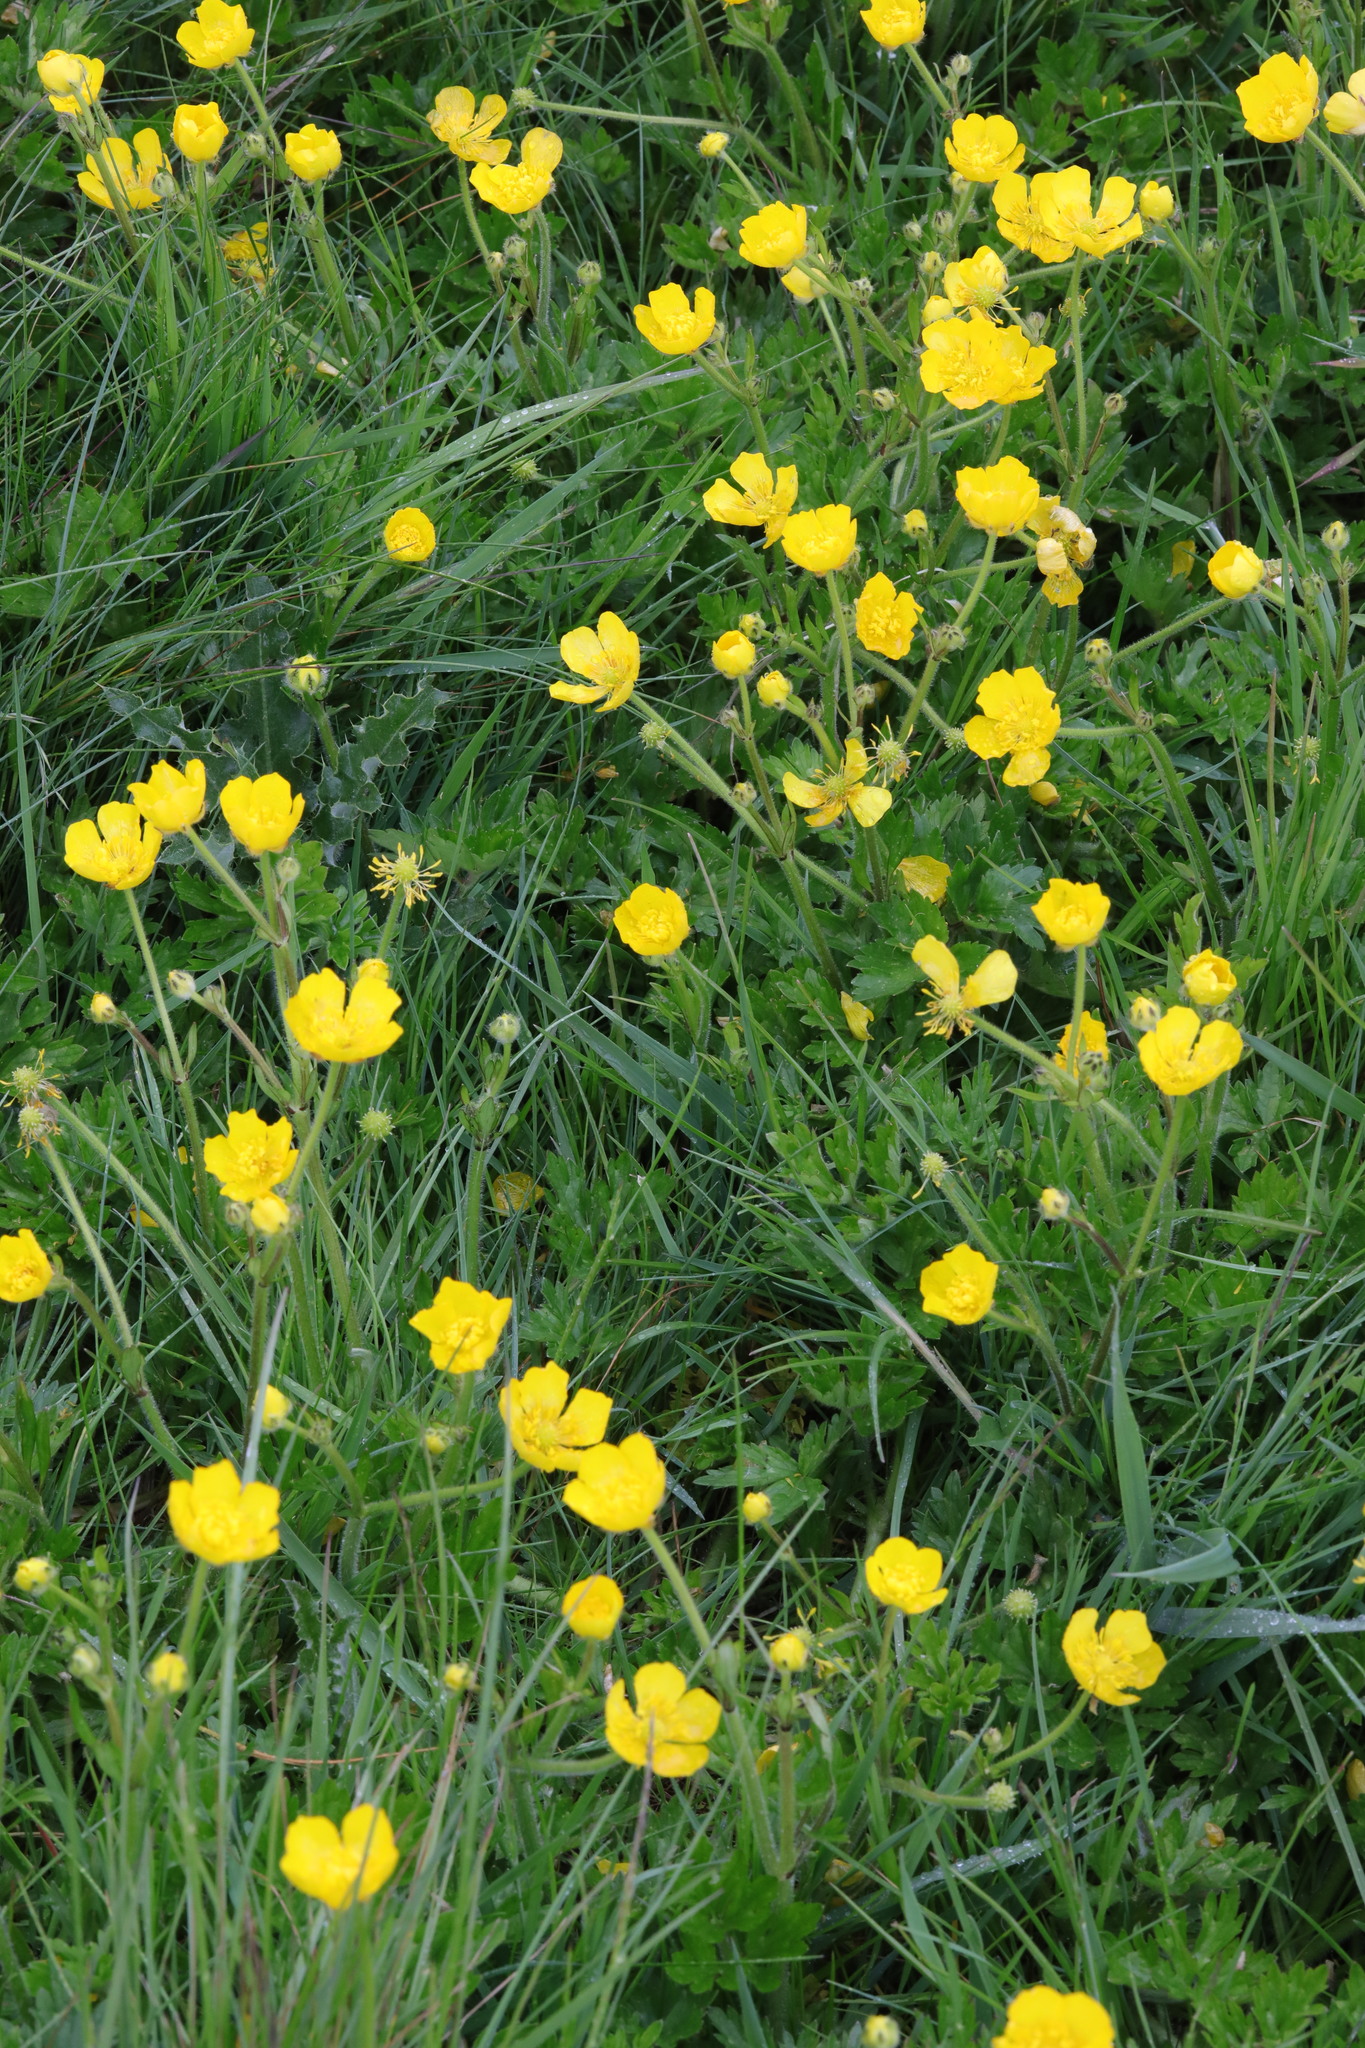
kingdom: Plantae
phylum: Tracheophyta
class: Magnoliopsida
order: Ranunculales
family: Ranunculaceae
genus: Ranunculus
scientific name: Ranunculus repens
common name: Creeping buttercup
